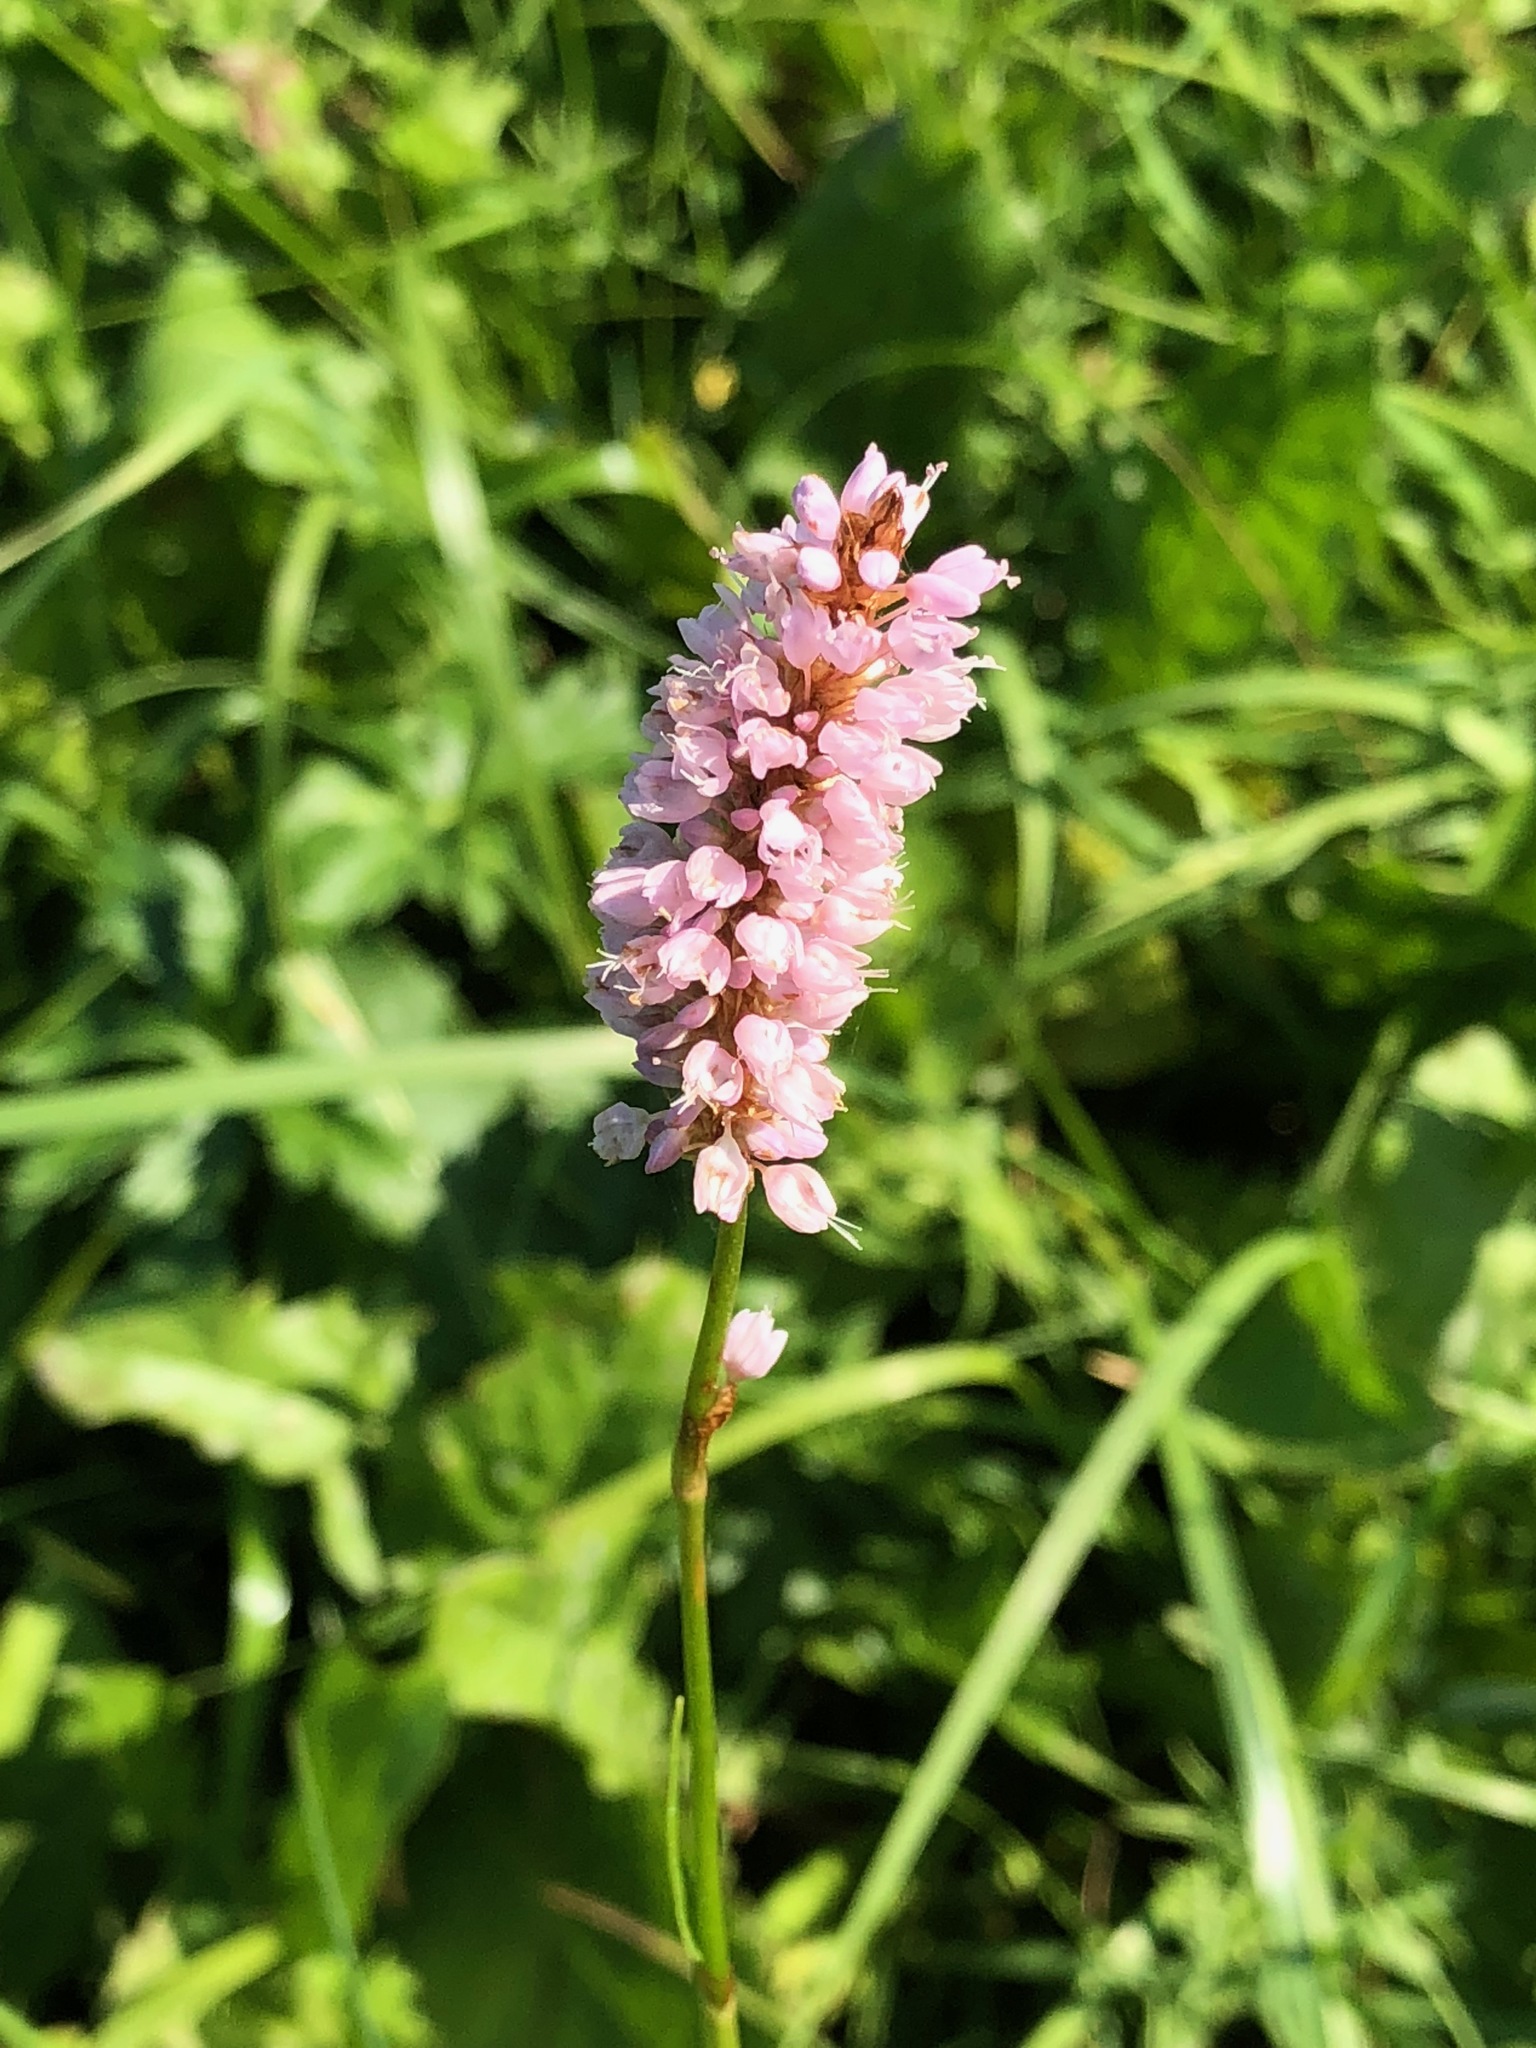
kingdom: Plantae
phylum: Tracheophyta
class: Magnoliopsida
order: Caryophyllales
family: Polygonaceae
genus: Bistorta
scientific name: Bistorta officinalis
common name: Common bistort
